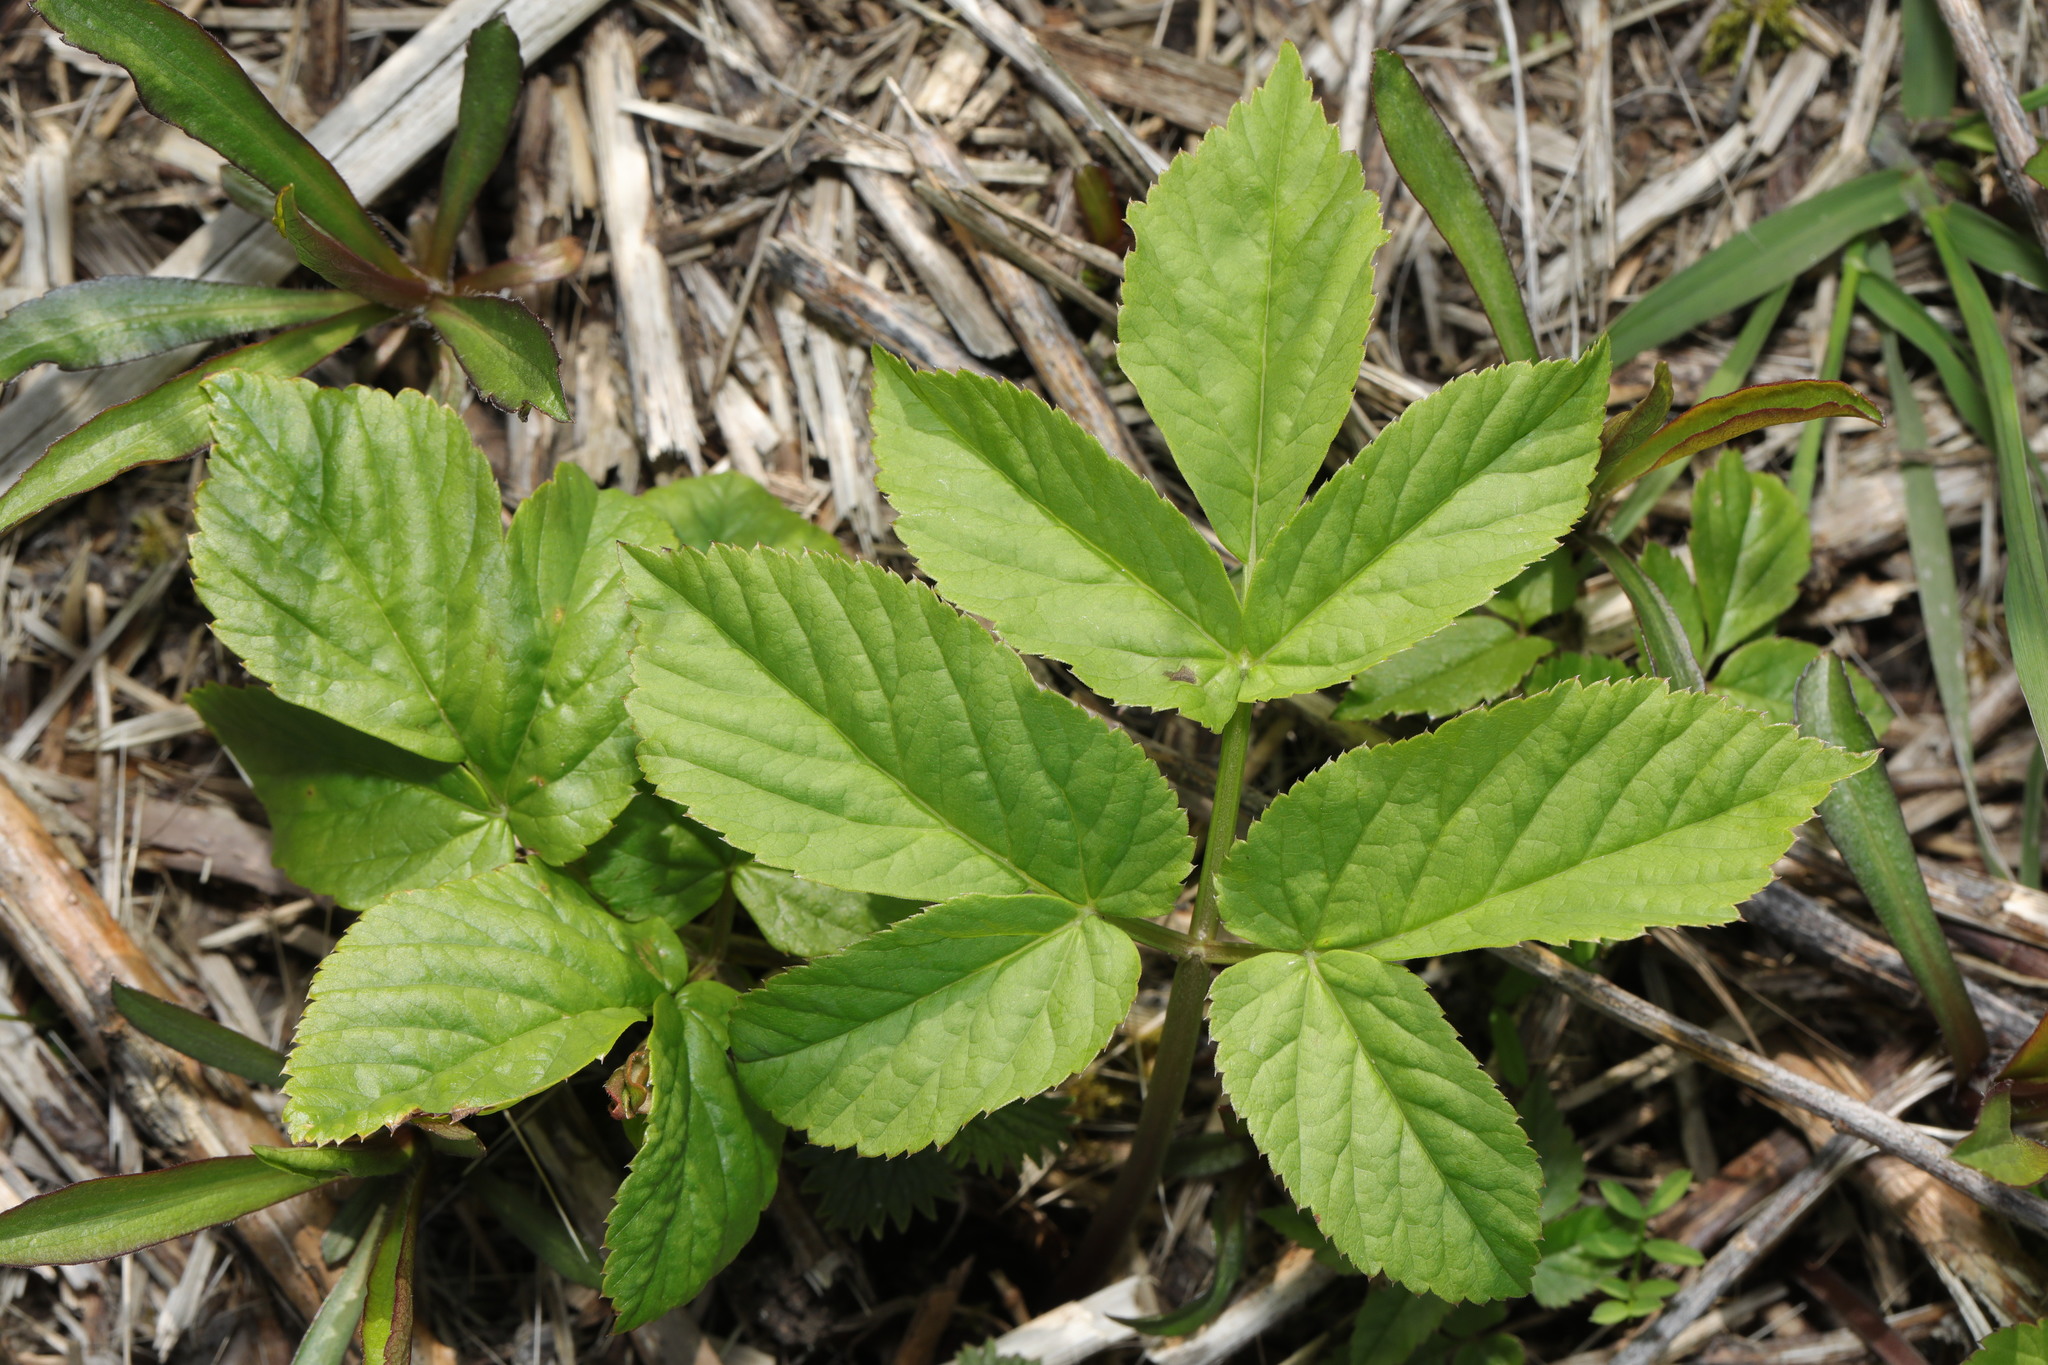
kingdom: Plantae
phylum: Tracheophyta
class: Magnoliopsida
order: Apiales
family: Apiaceae
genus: Aegopodium
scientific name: Aegopodium podagraria
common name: Ground-elder
